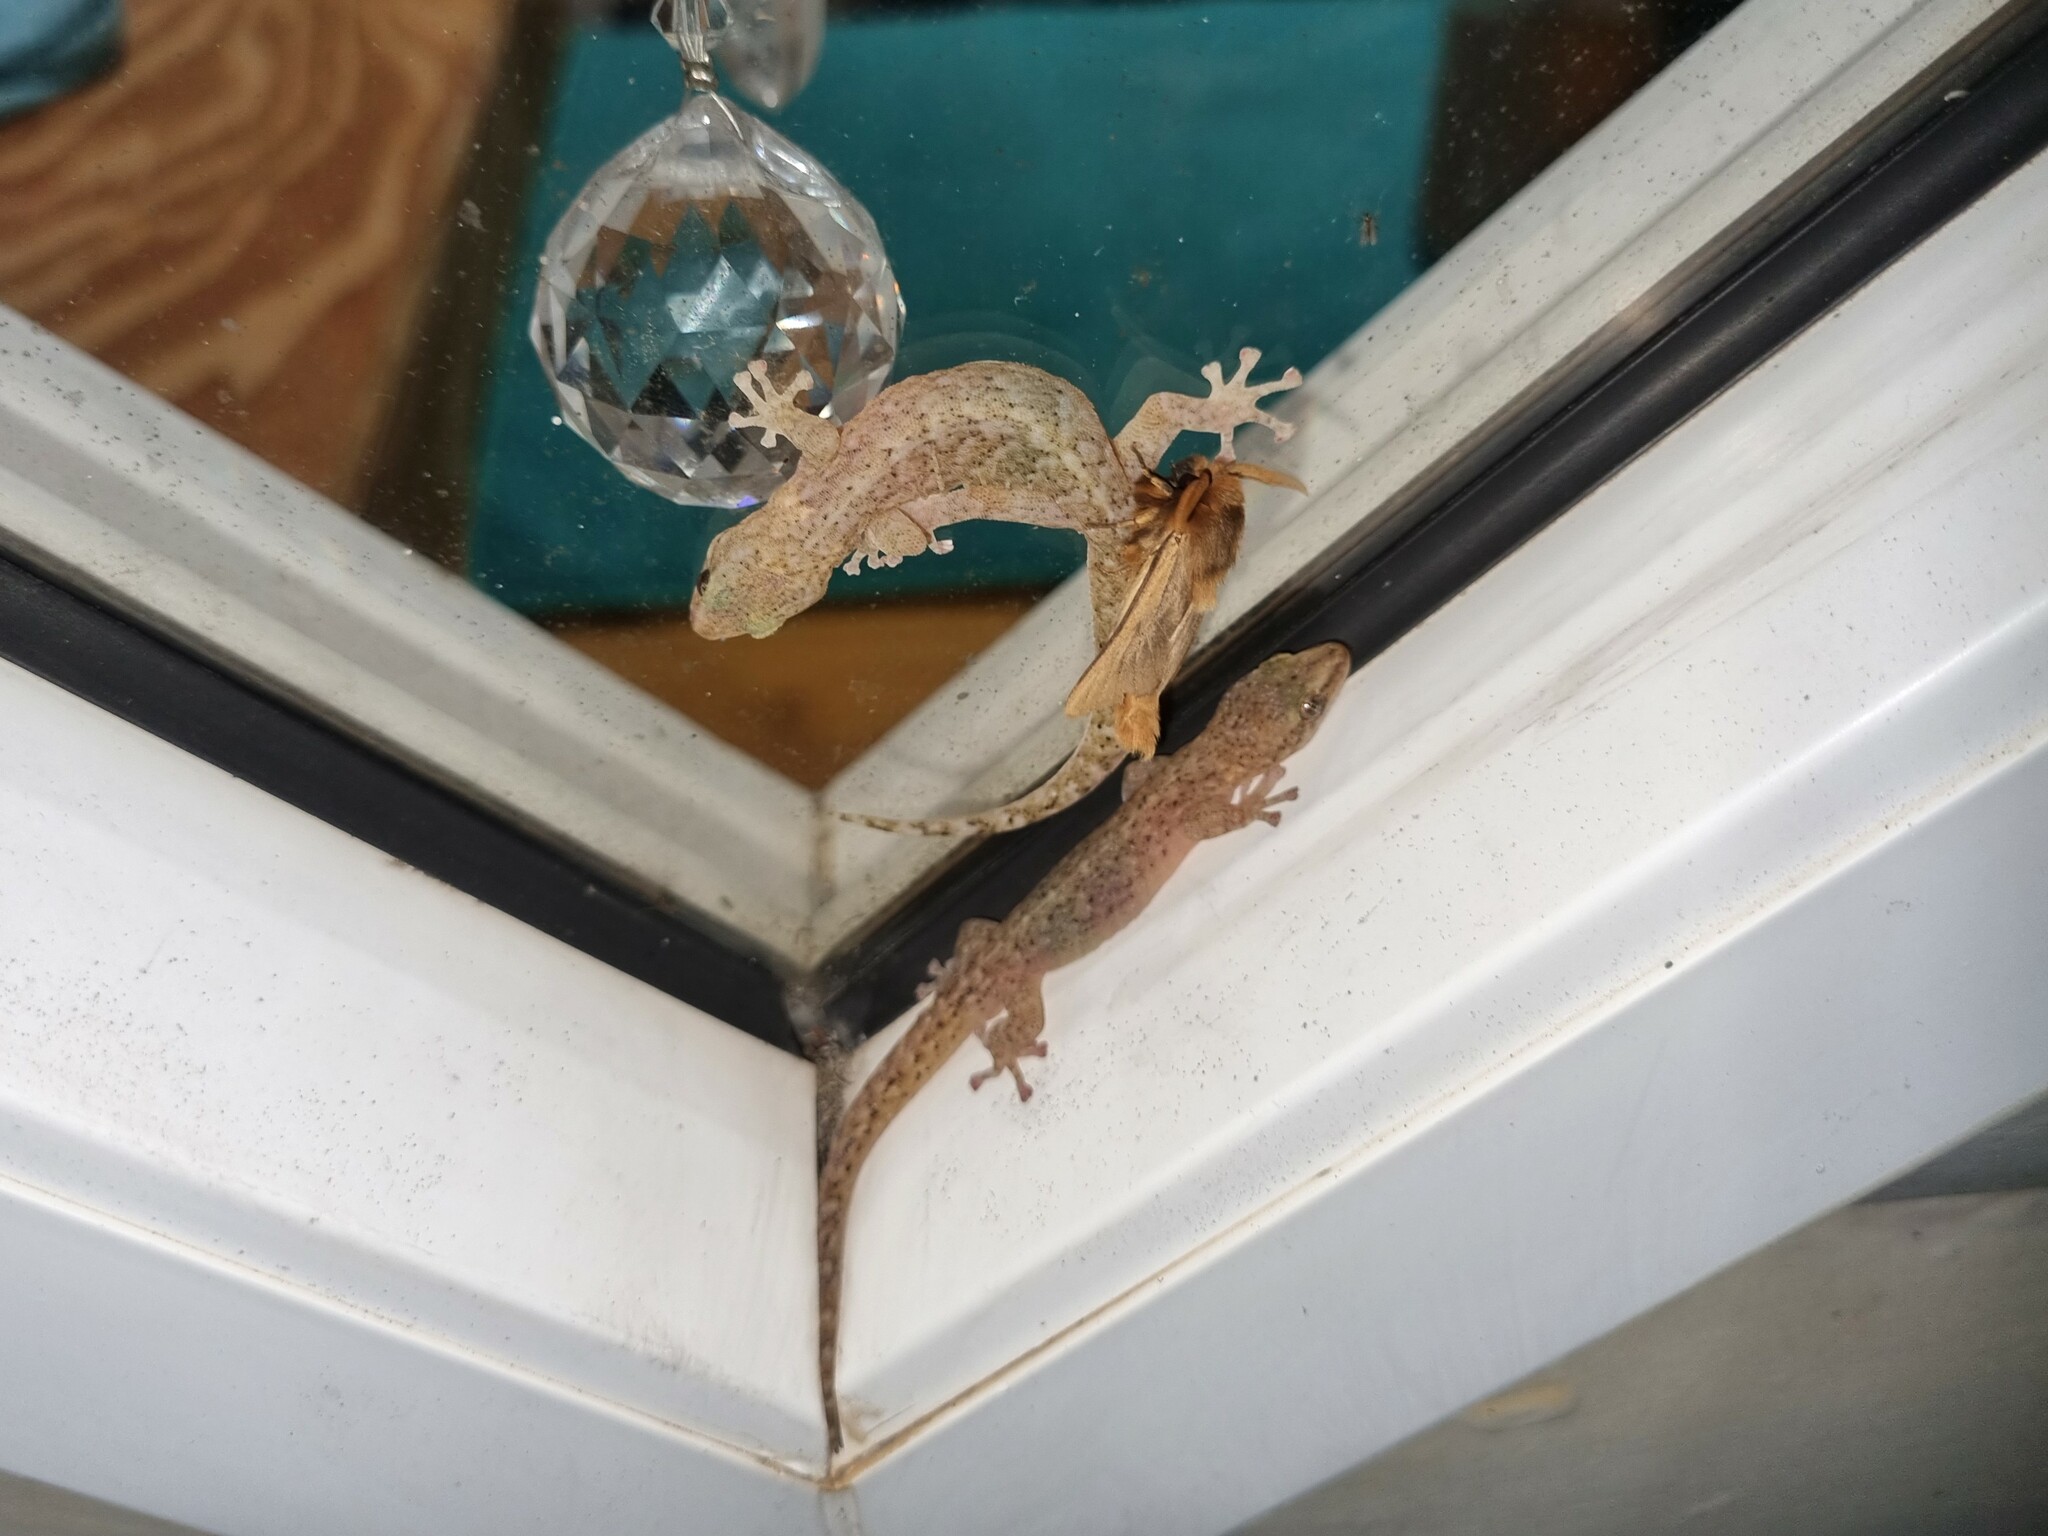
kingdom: Animalia
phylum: Chordata
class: Squamata
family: Gekkonidae
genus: Afrogecko
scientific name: Afrogecko porphyreus
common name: Marbled leaf-toed gecko
